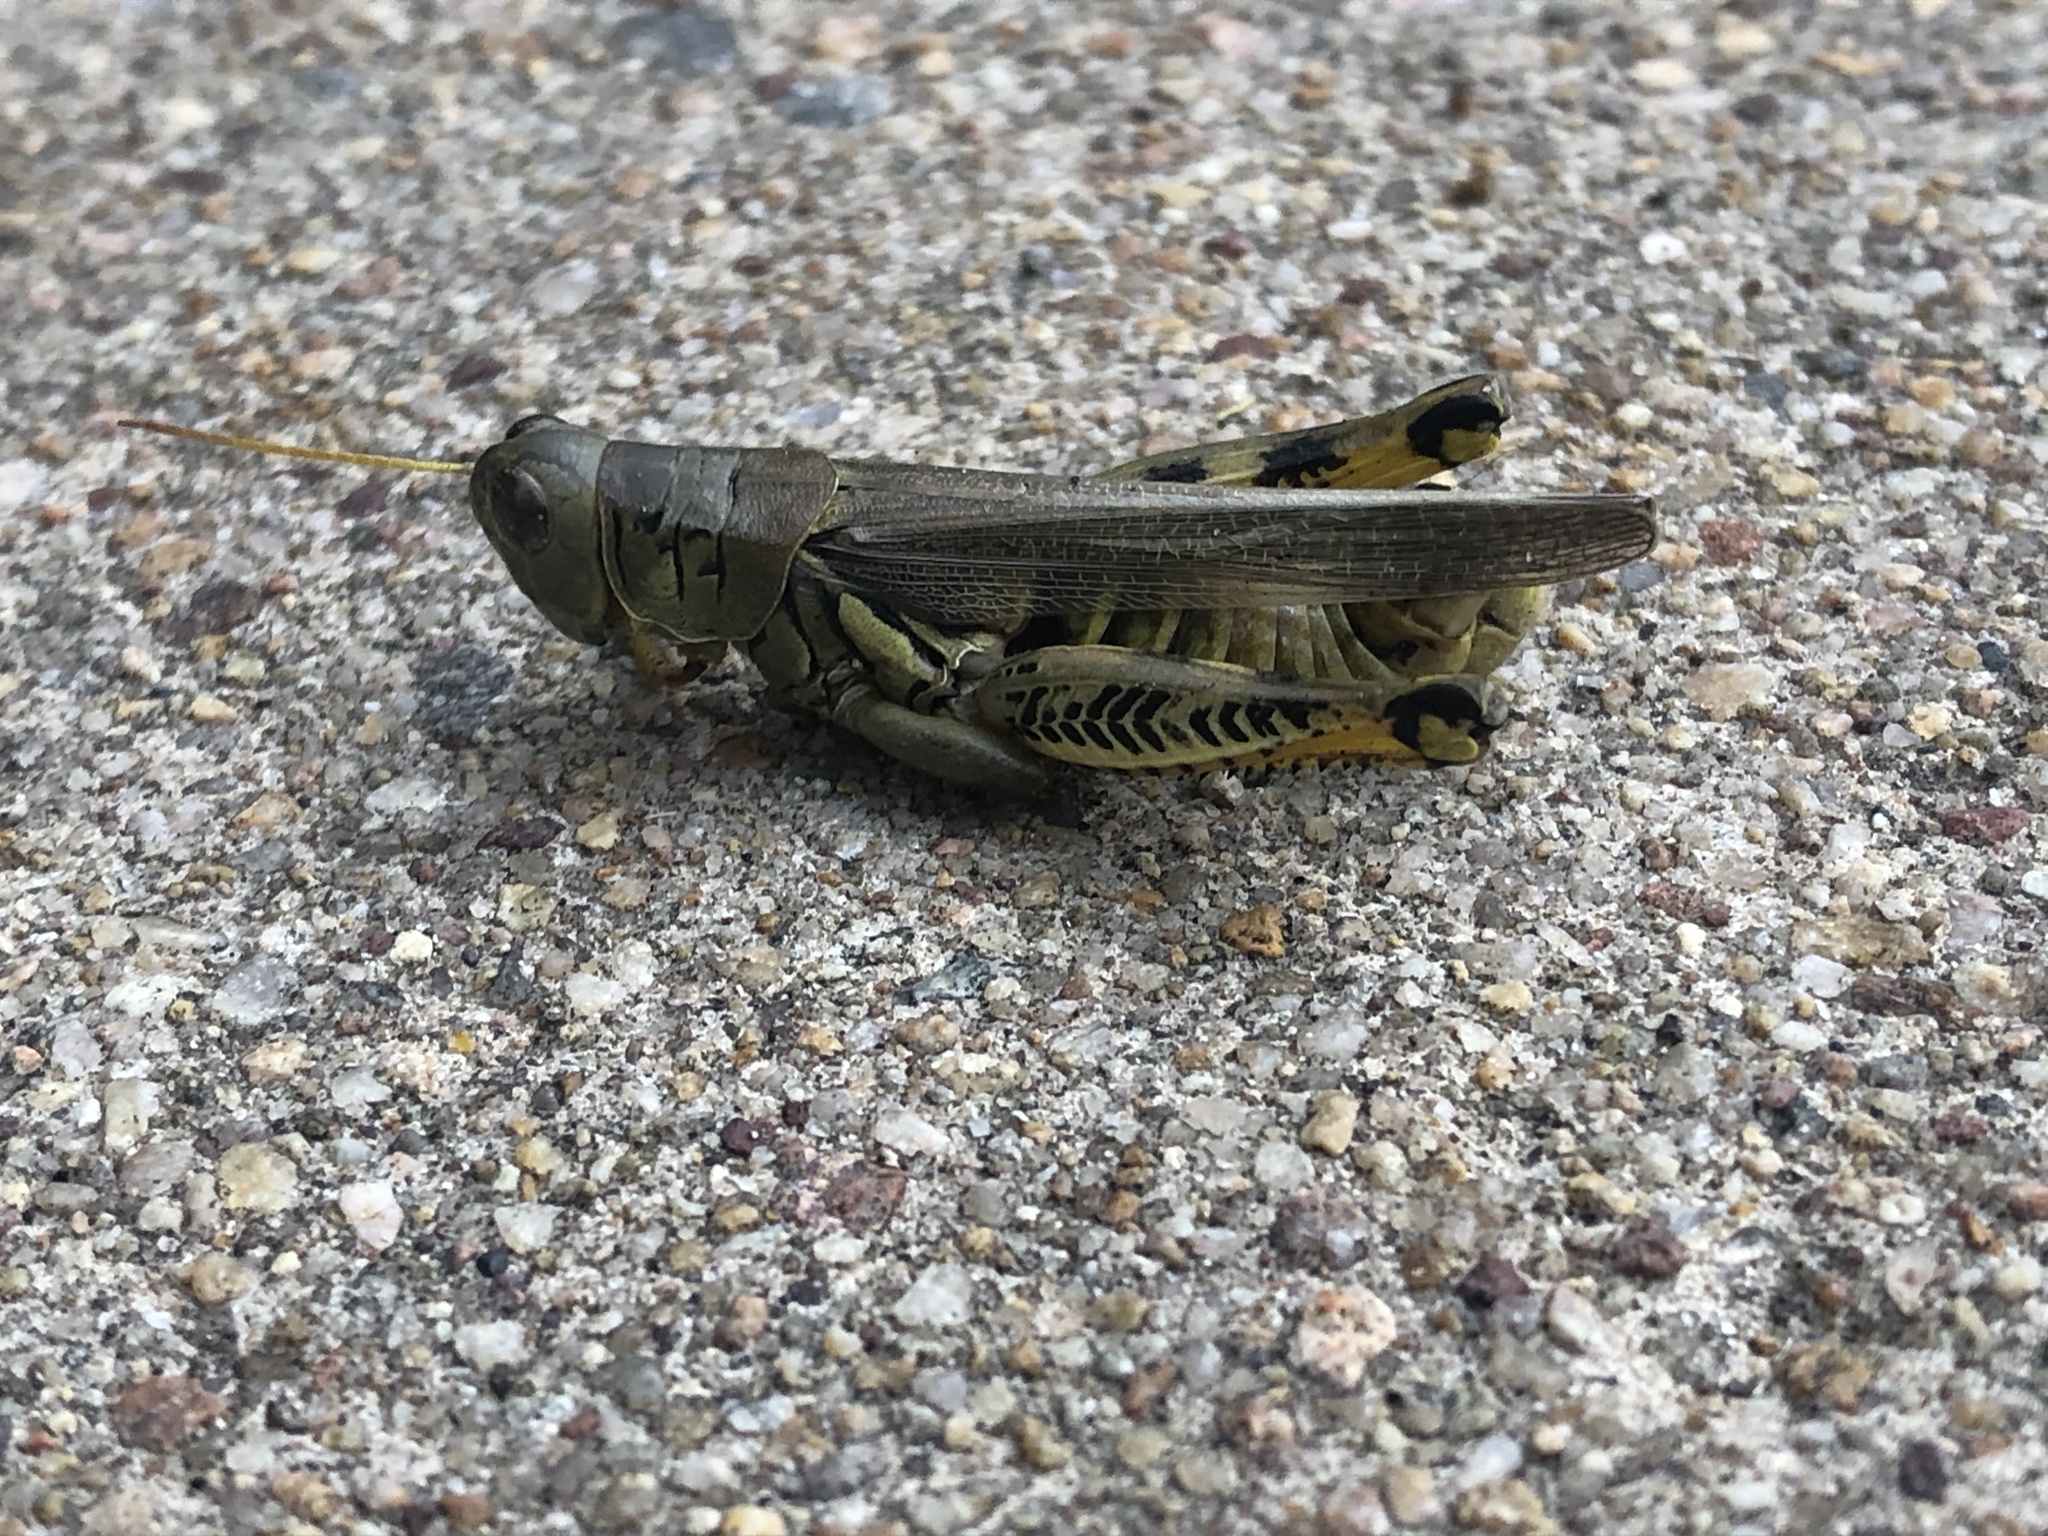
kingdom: Animalia
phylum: Arthropoda
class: Insecta
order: Orthoptera
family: Acrididae
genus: Melanoplus
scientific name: Melanoplus differentialis
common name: Differential grasshopper
